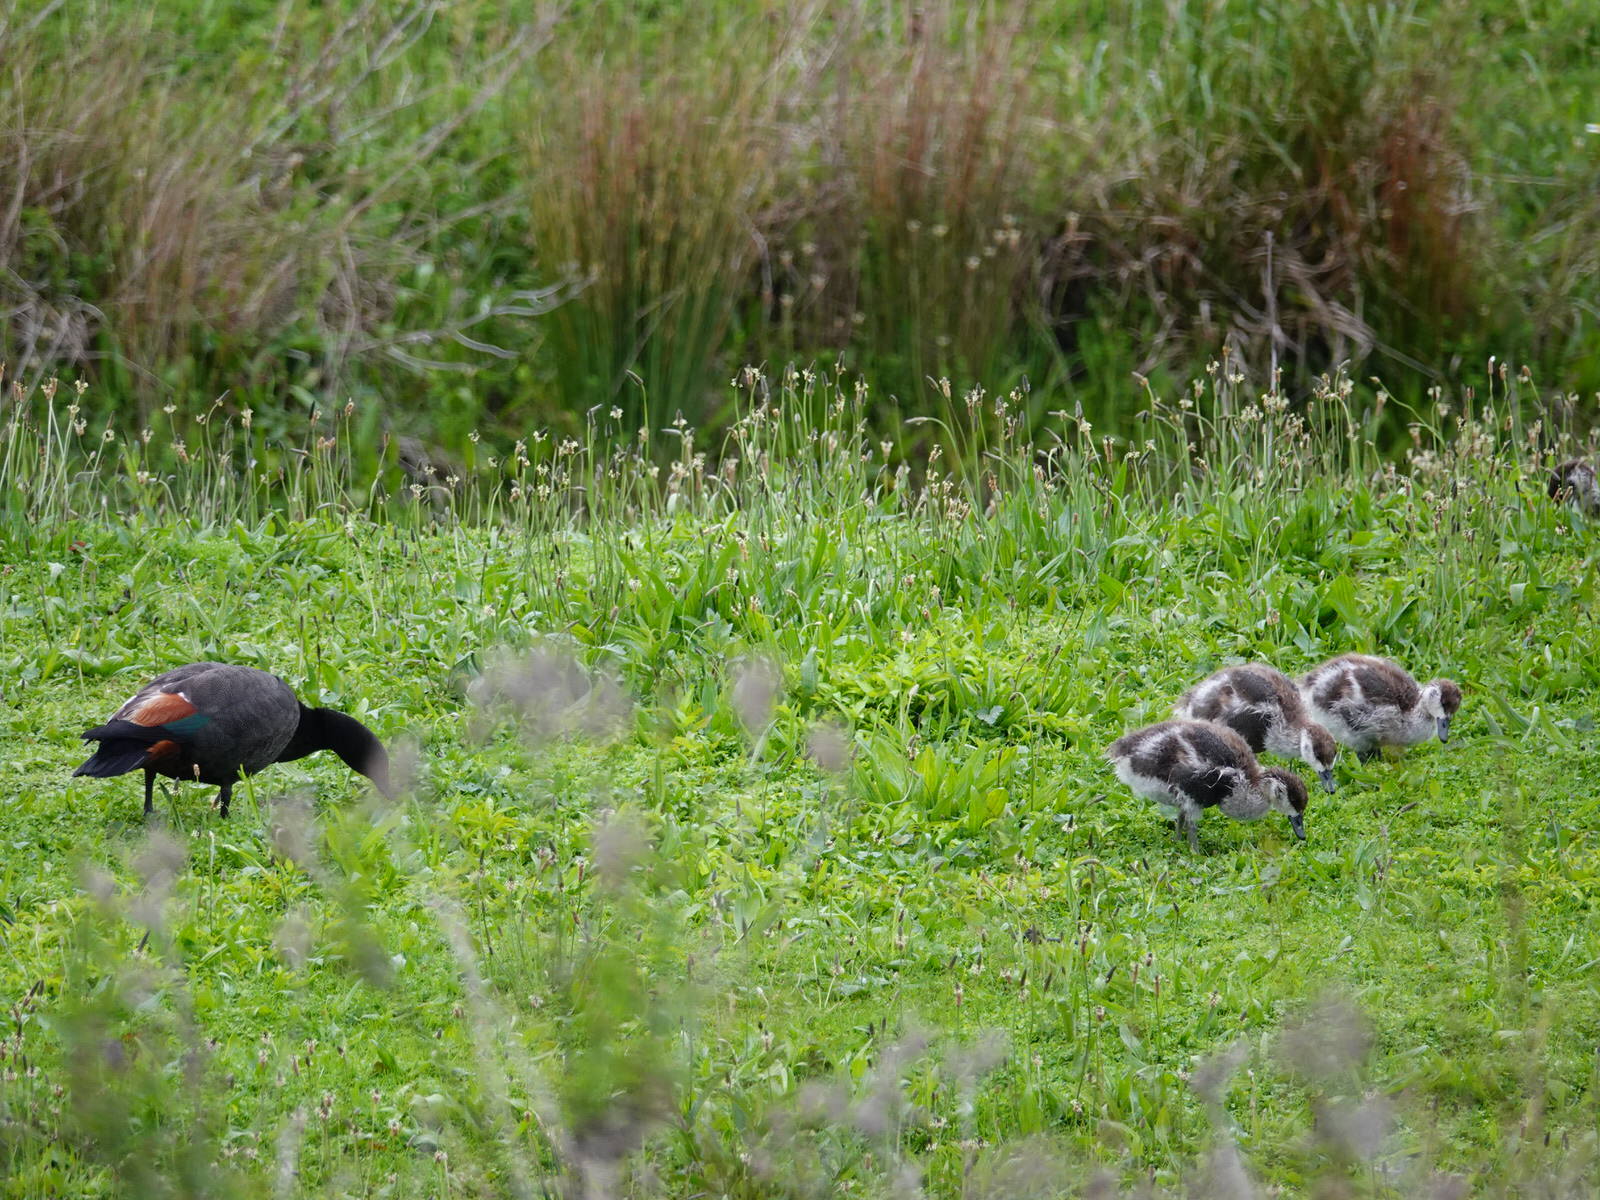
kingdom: Animalia
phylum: Chordata
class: Aves
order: Anseriformes
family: Anatidae
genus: Tadorna
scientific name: Tadorna variegata
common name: Paradise shelduck
